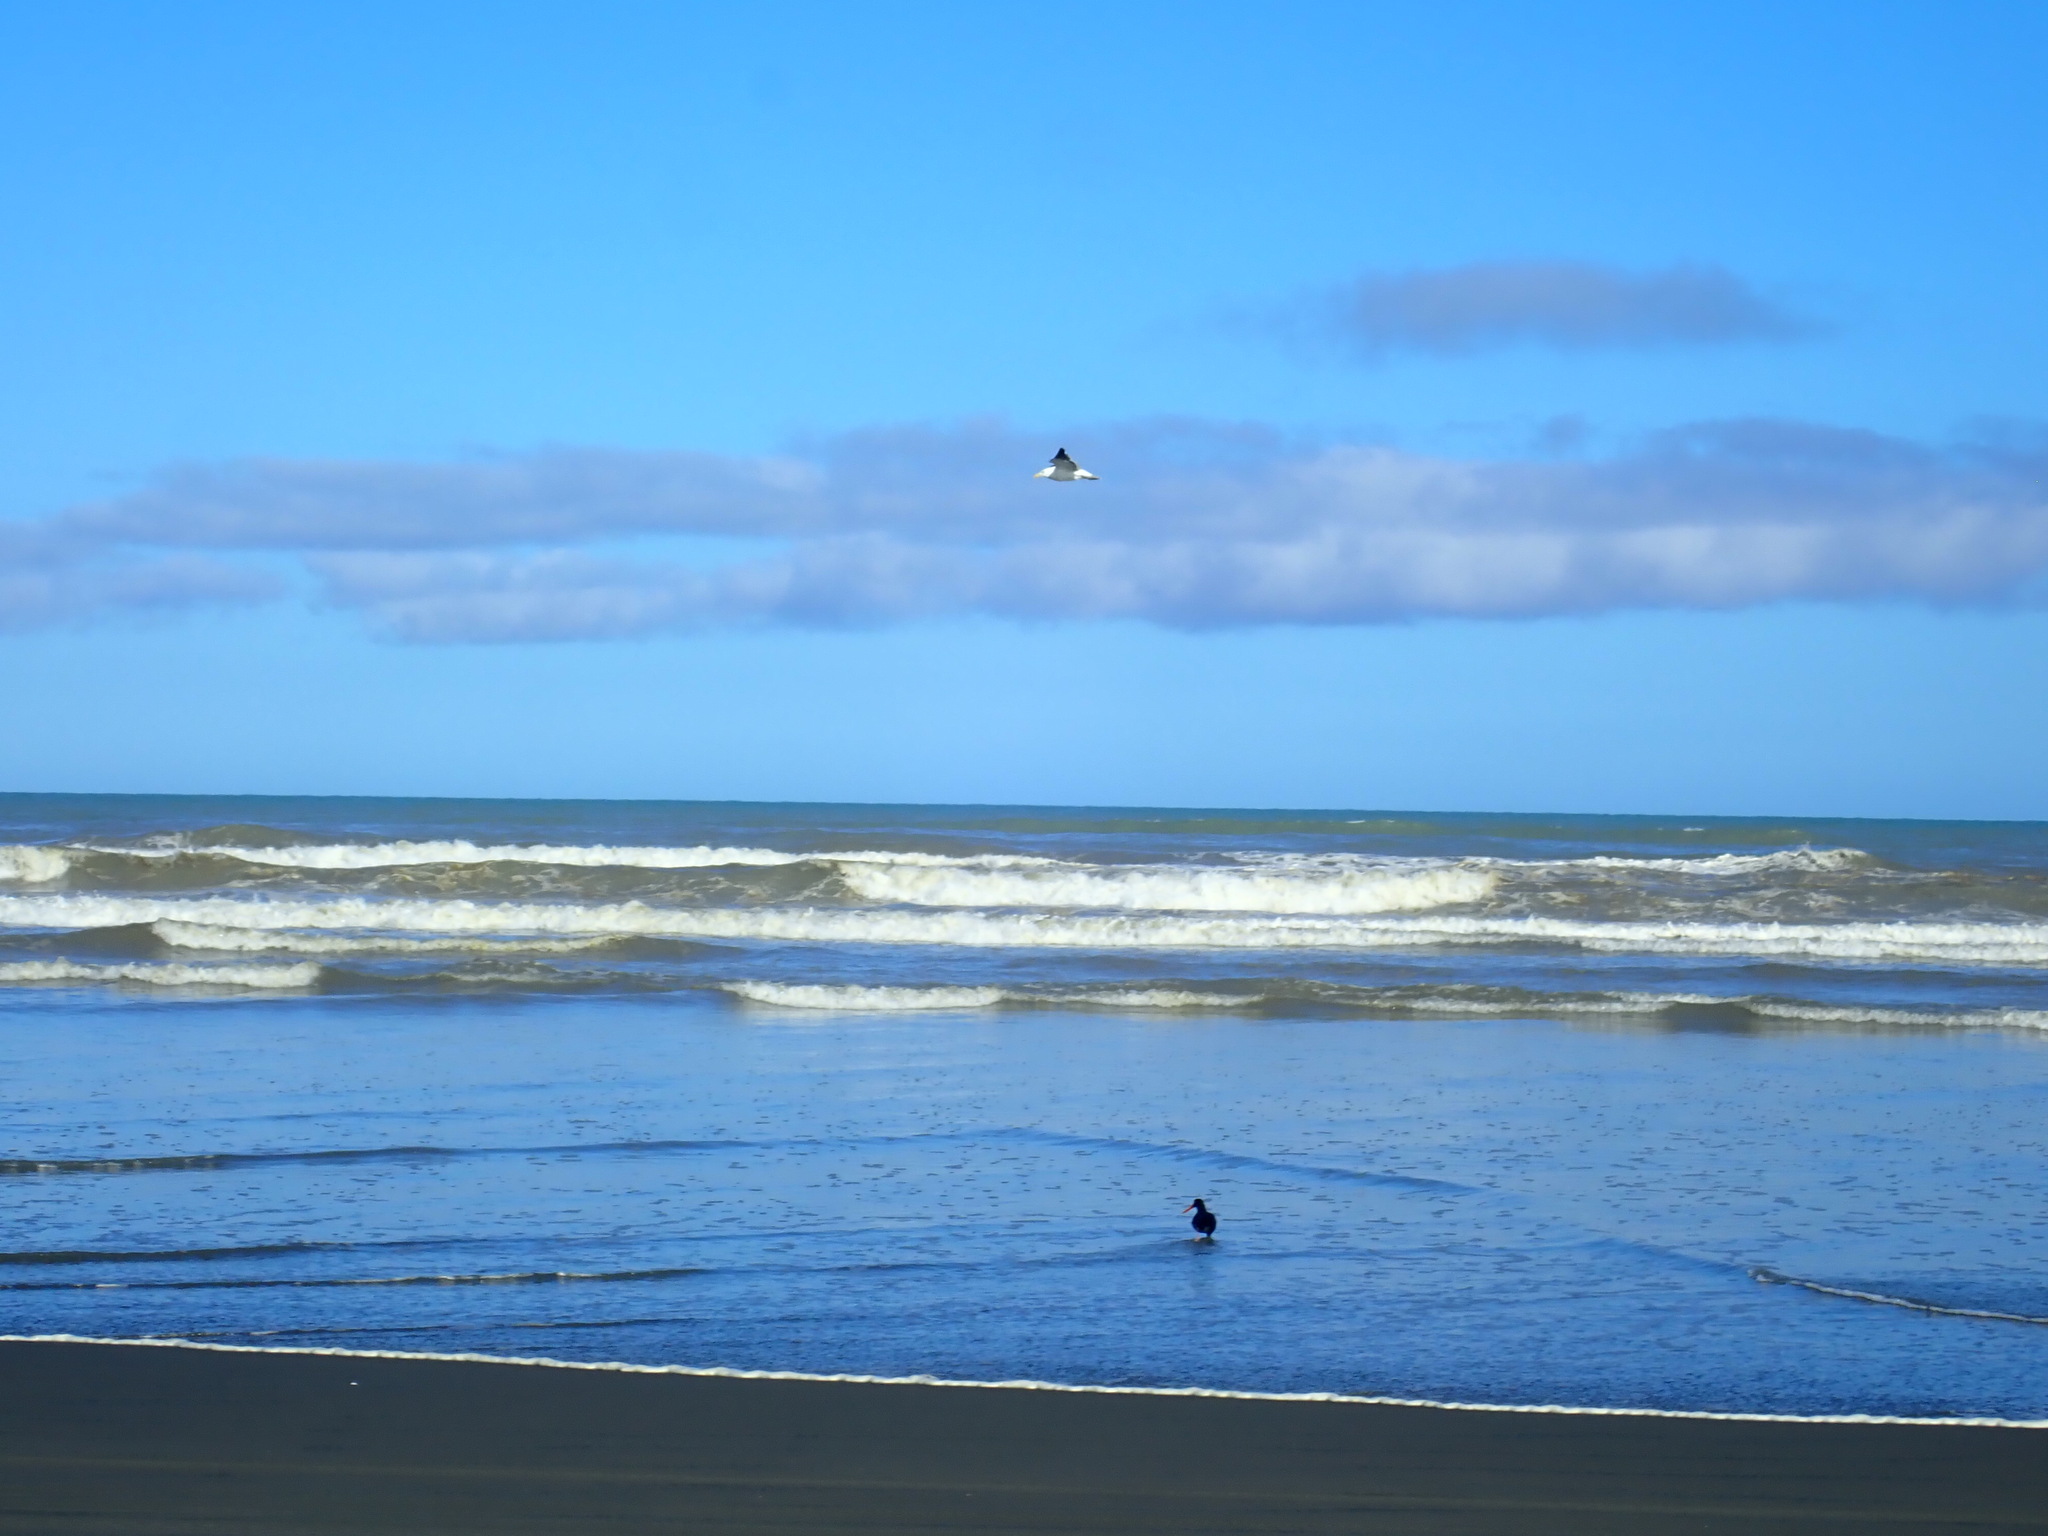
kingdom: Animalia
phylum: Chordata
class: Aves
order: Charadriiformes
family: Haematopodidae
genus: Haematopus
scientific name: Haematopus unicolor
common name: Variable oystercatcher
